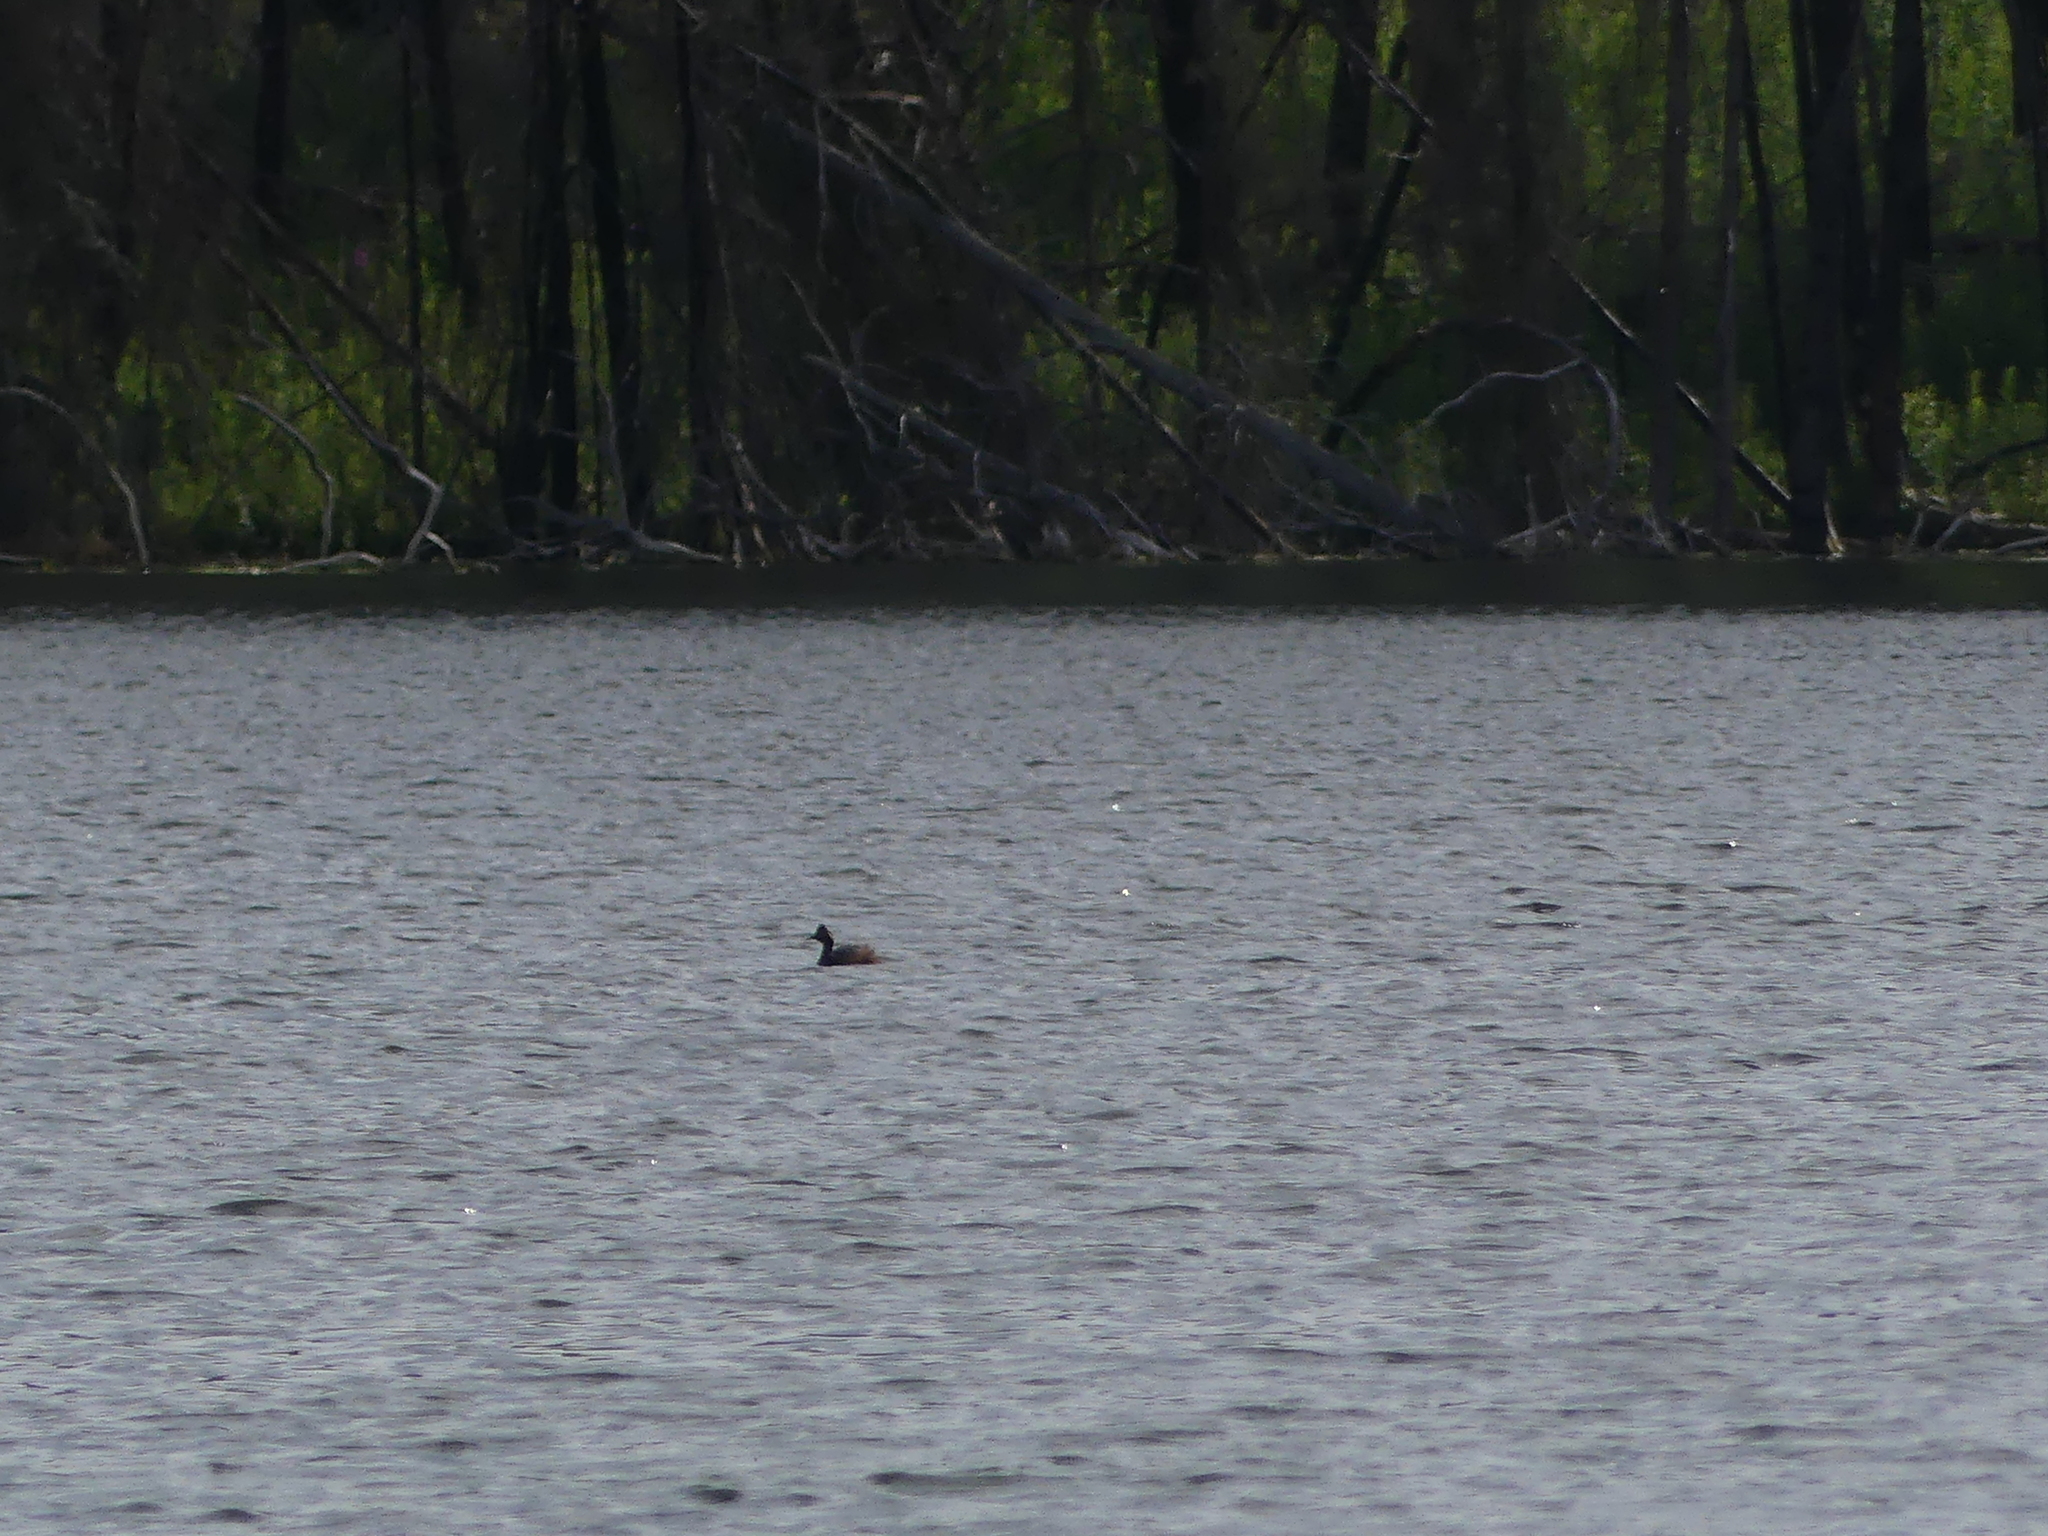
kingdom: Animalia
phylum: Chordata
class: Aves
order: Podicipediformes
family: Podicipedidae
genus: Podiceps
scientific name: Podiceps nigricollis
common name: Black-necked grebe
